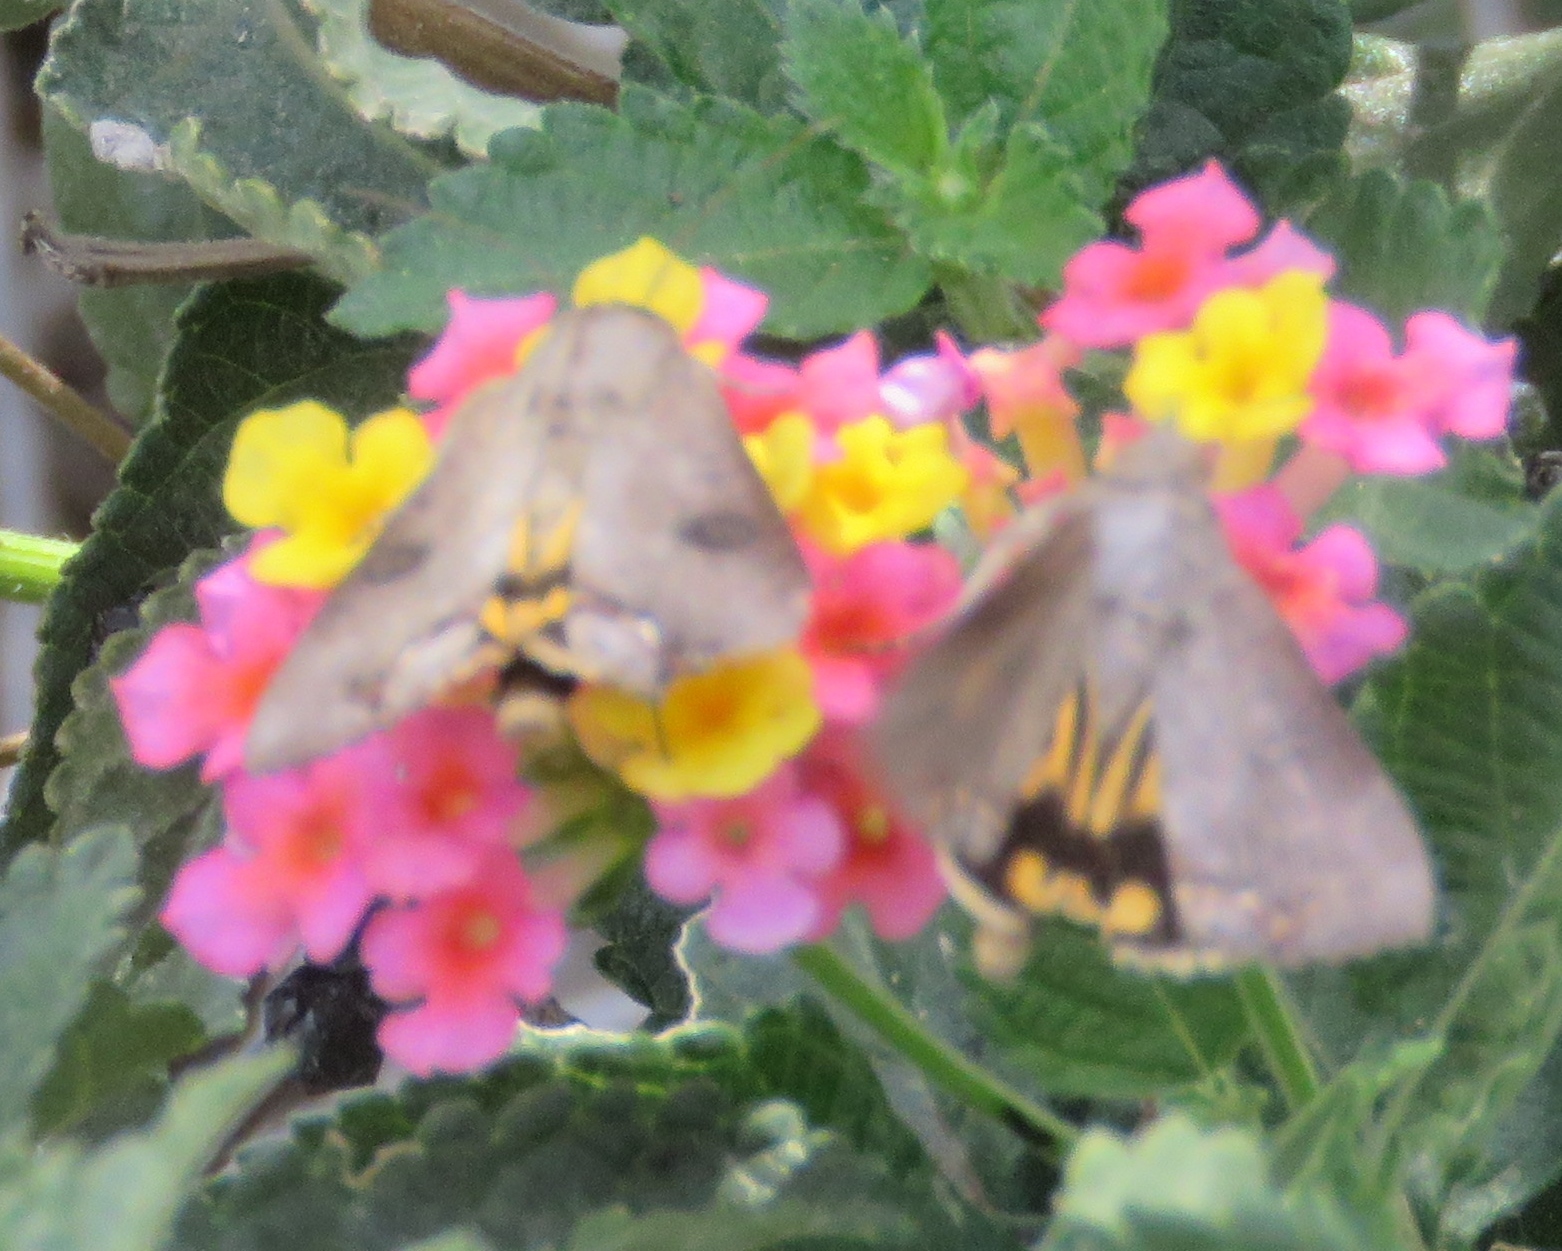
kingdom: Animalia
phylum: Arthropoda
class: Insecta
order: Lepidoptera
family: Erebidae
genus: Hypocala
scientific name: Hypocala andremona
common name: Hypocala moth
